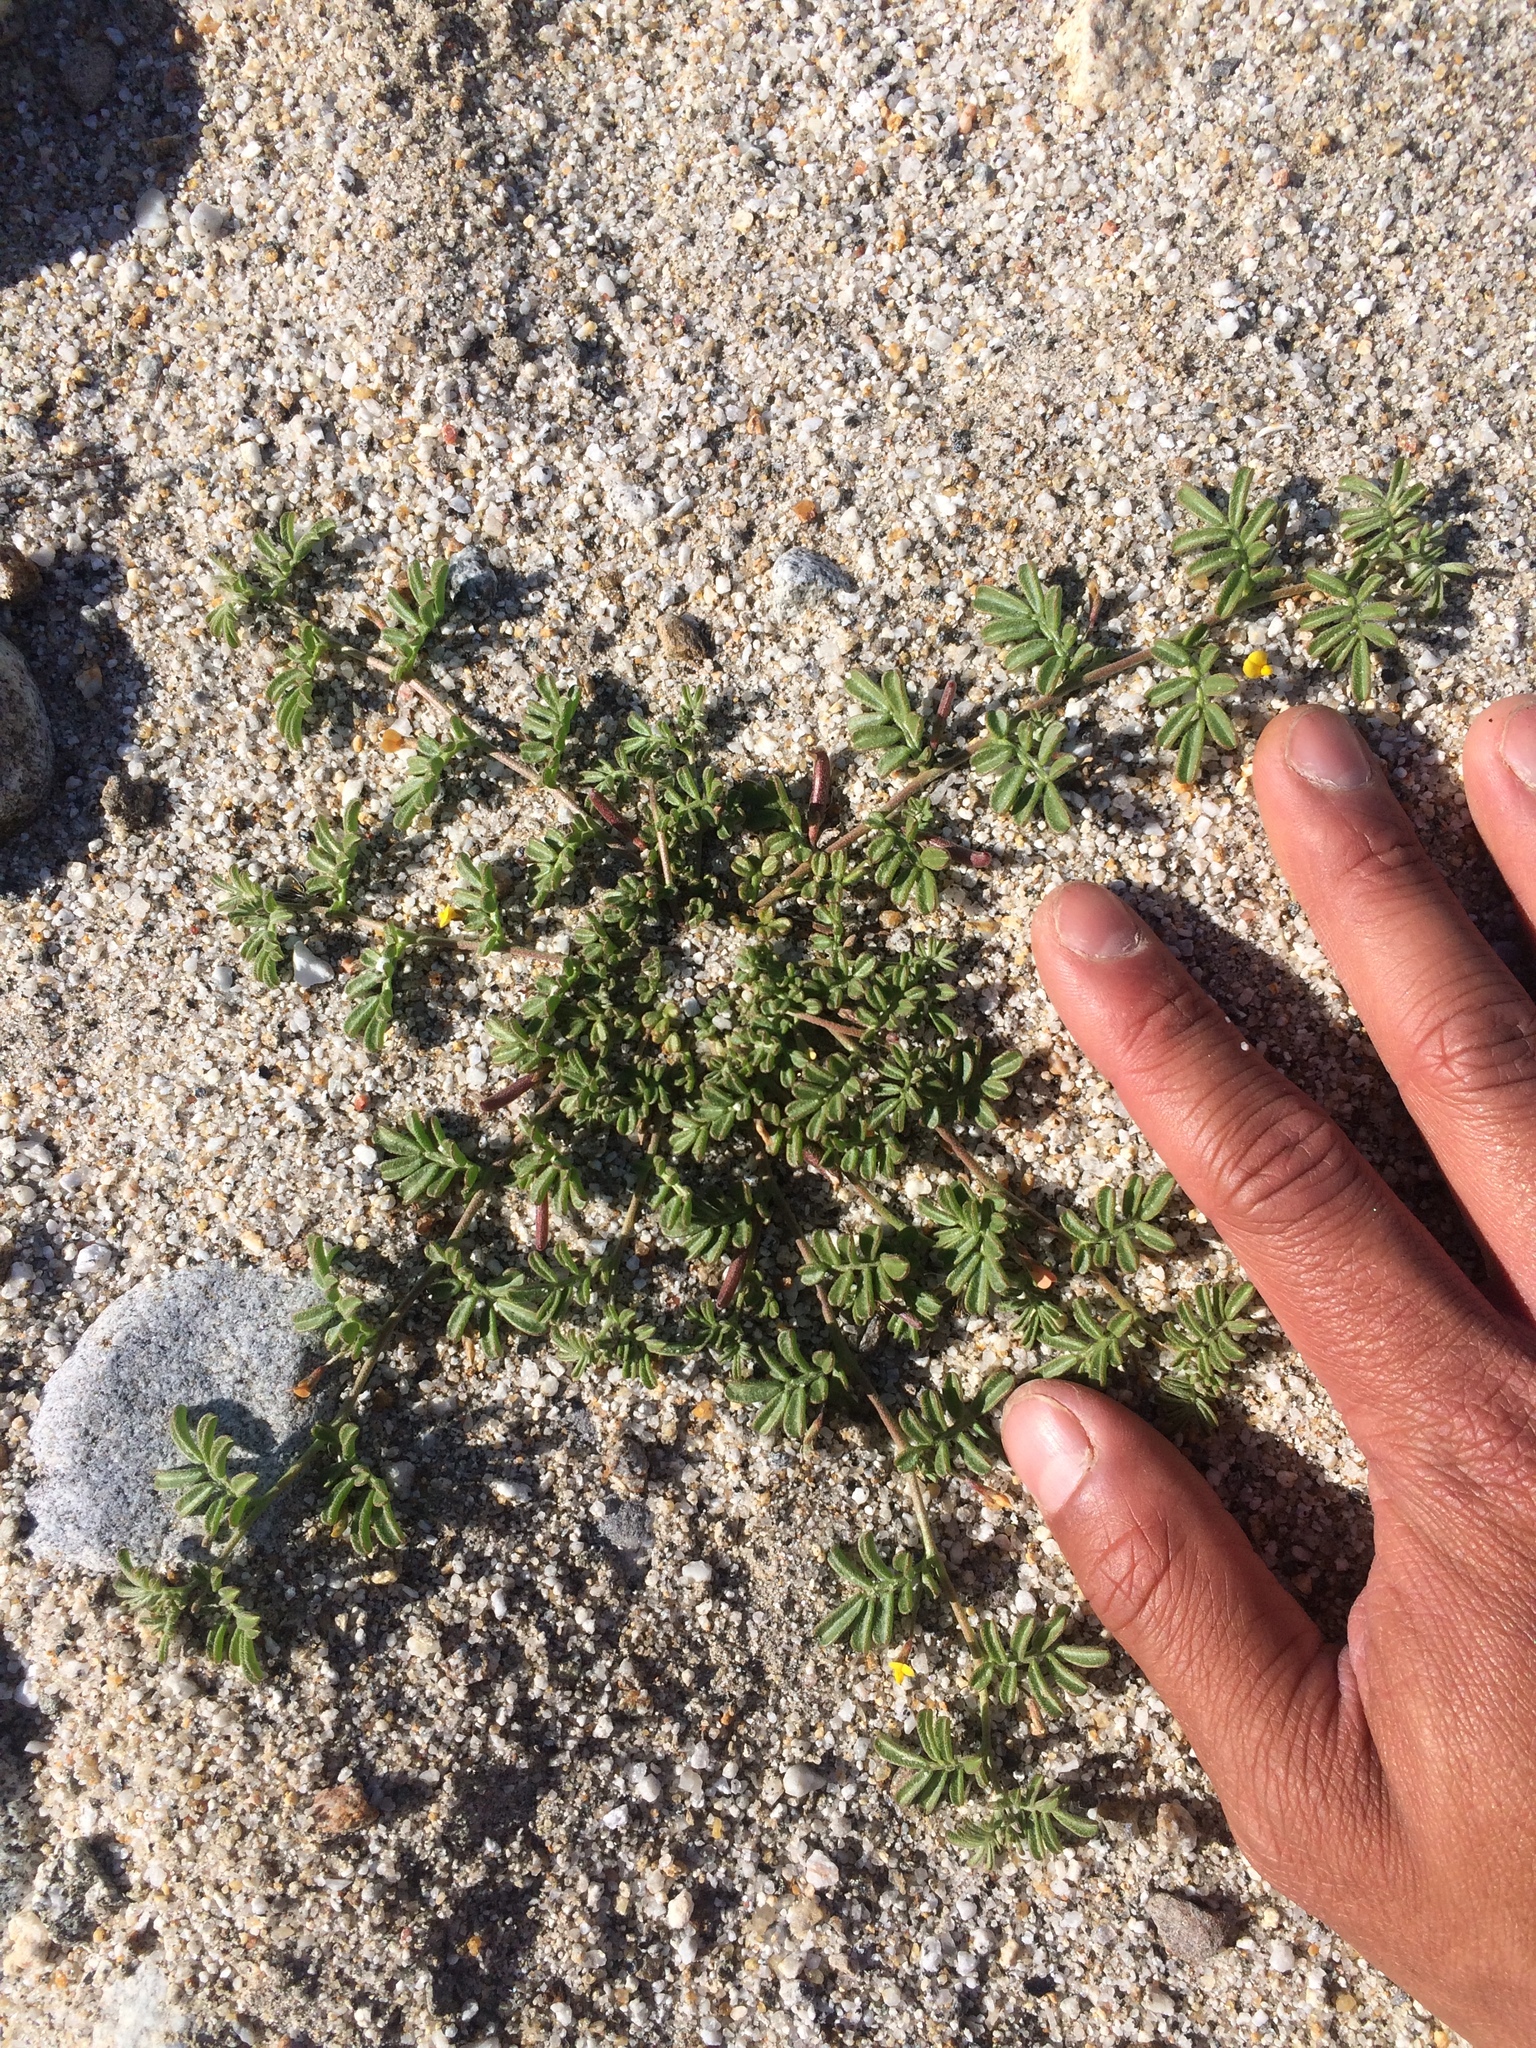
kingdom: Plantae
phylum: Tracheophyta
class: Magnoliopsida
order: Fabales
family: Fabaceae
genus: Acmispon
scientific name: Acmispon strigosus
